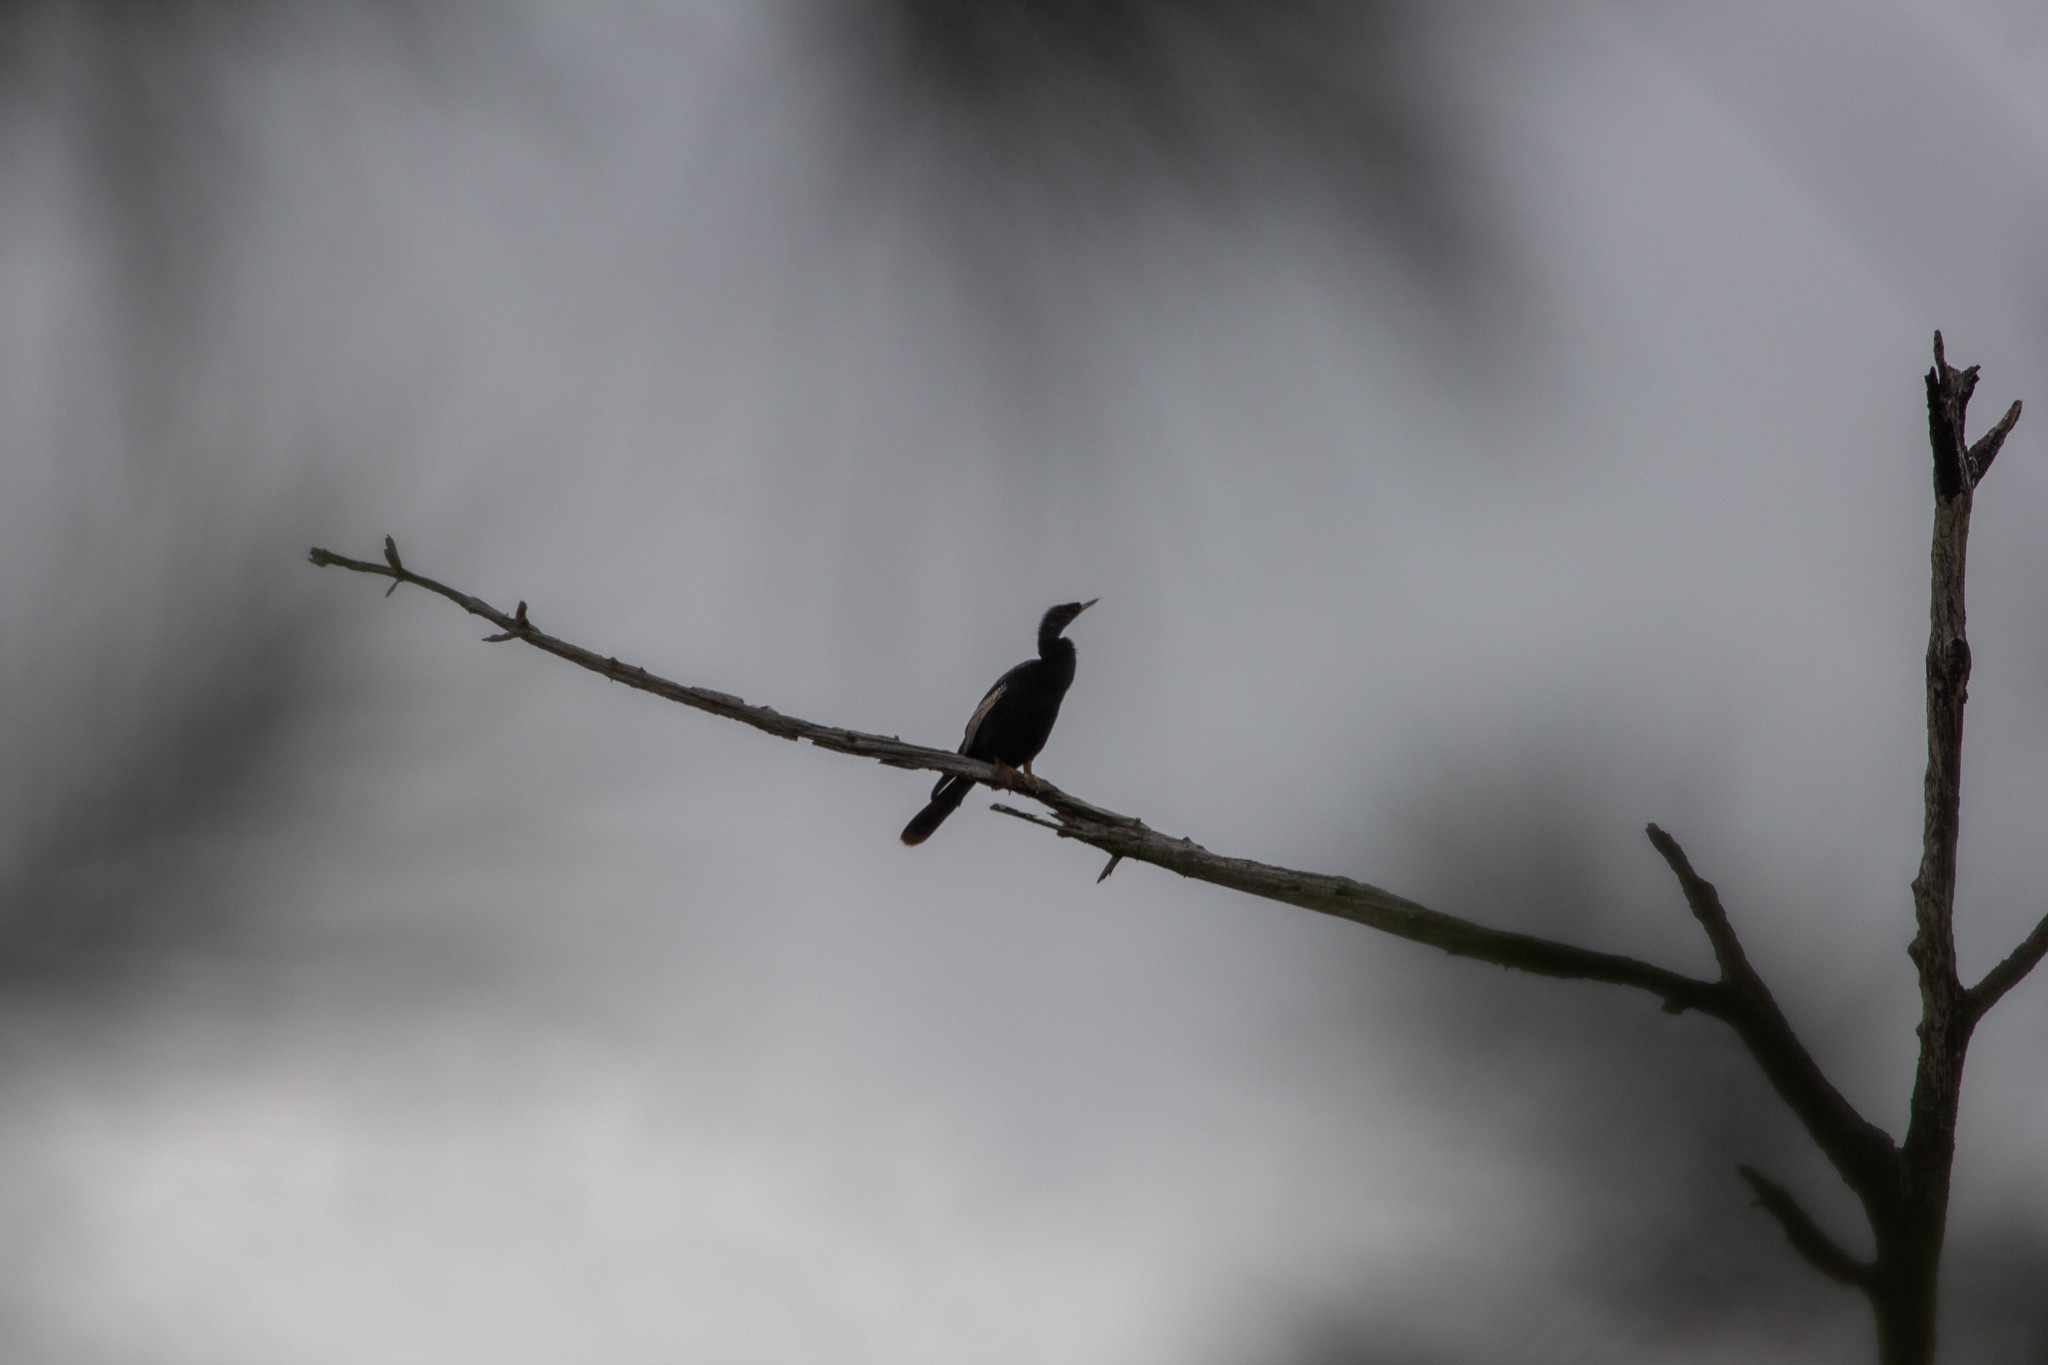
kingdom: Animalia
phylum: Chordata
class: Aves
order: Suliformes
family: Anhingidae
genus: Anhinga
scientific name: Anhinga anhinga
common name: Anhinga
